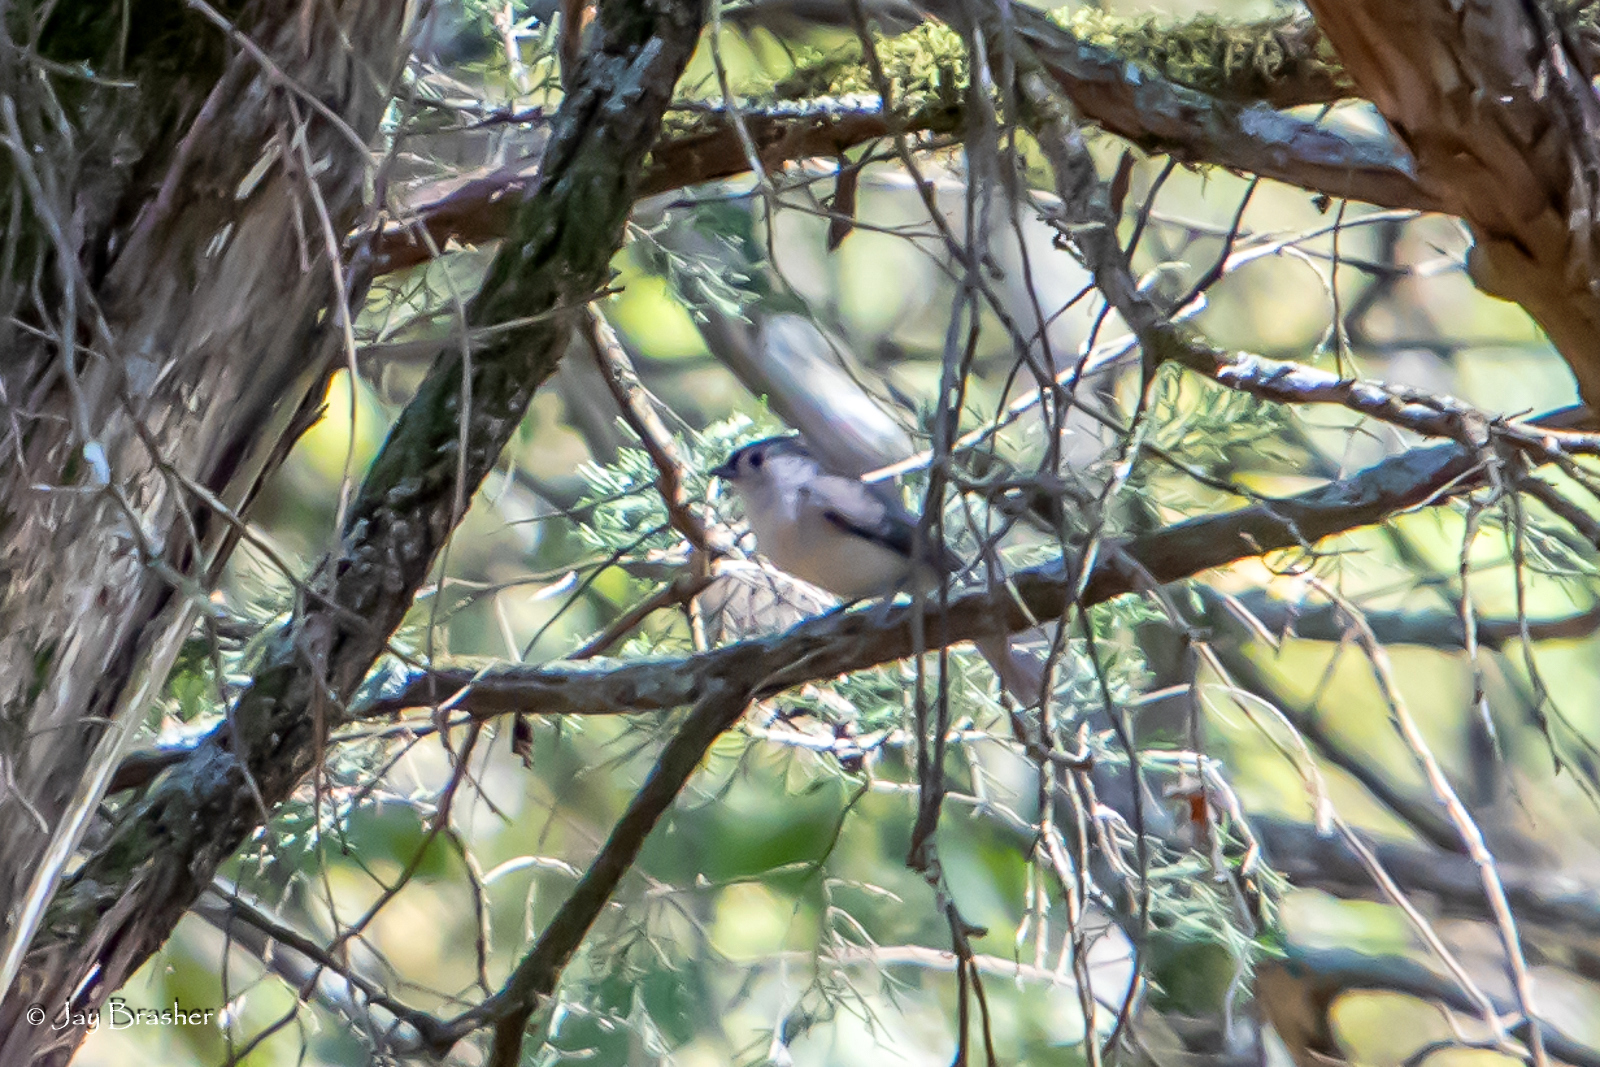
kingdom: Animalia
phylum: Chordata
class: Aves
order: Passeriformes
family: Paridae
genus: Baeolophus
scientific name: Baeolophus bicolor
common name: Tufted titmouse
